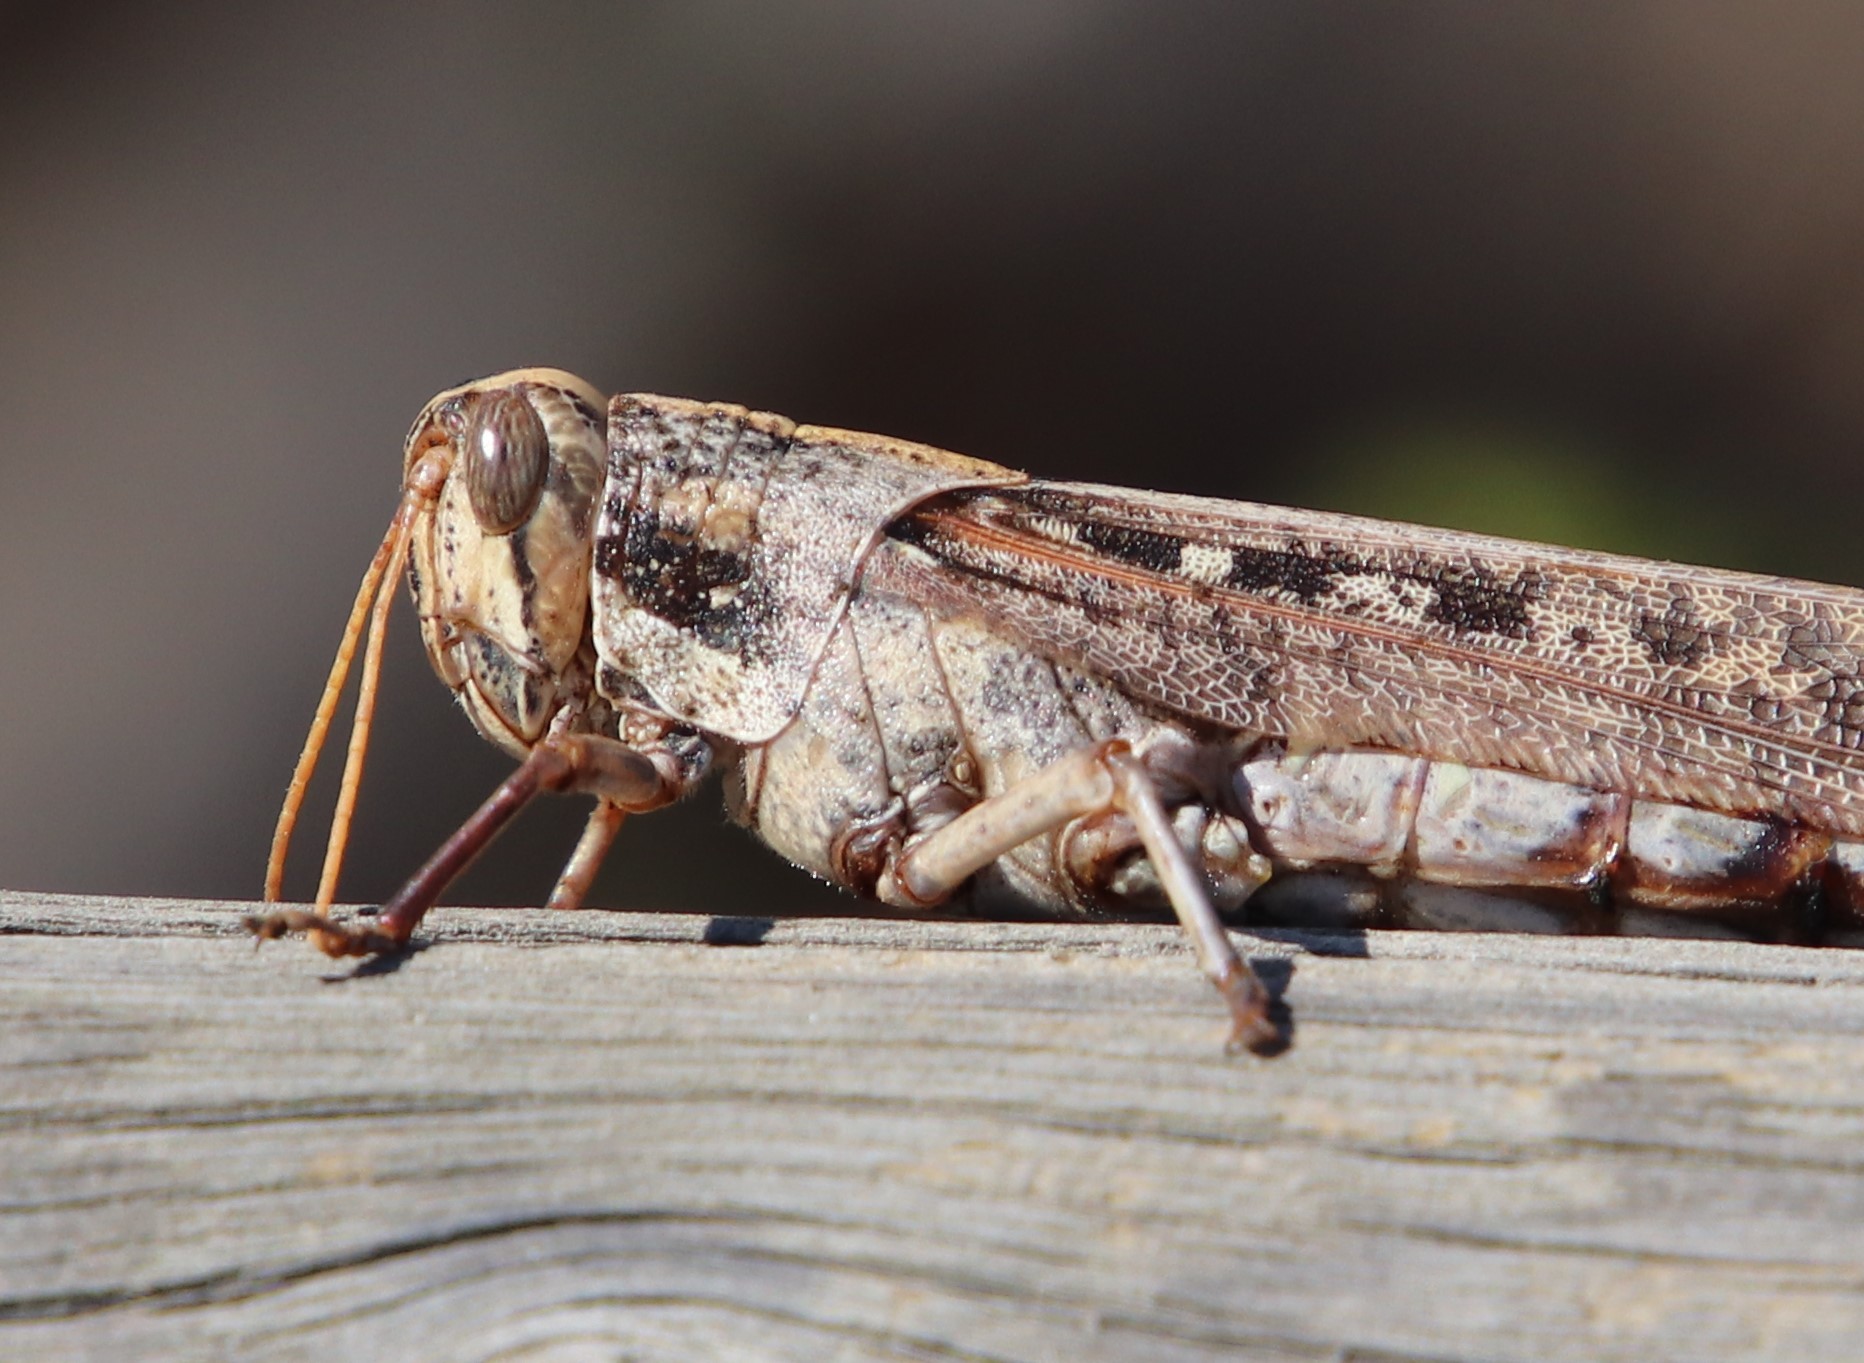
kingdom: Animalia
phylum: Arthropoda
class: Insecta
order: Orthoptera
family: Acrididae
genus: Schistocerca
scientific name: Schistocerca nitens
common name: Vagrant grasshopper
